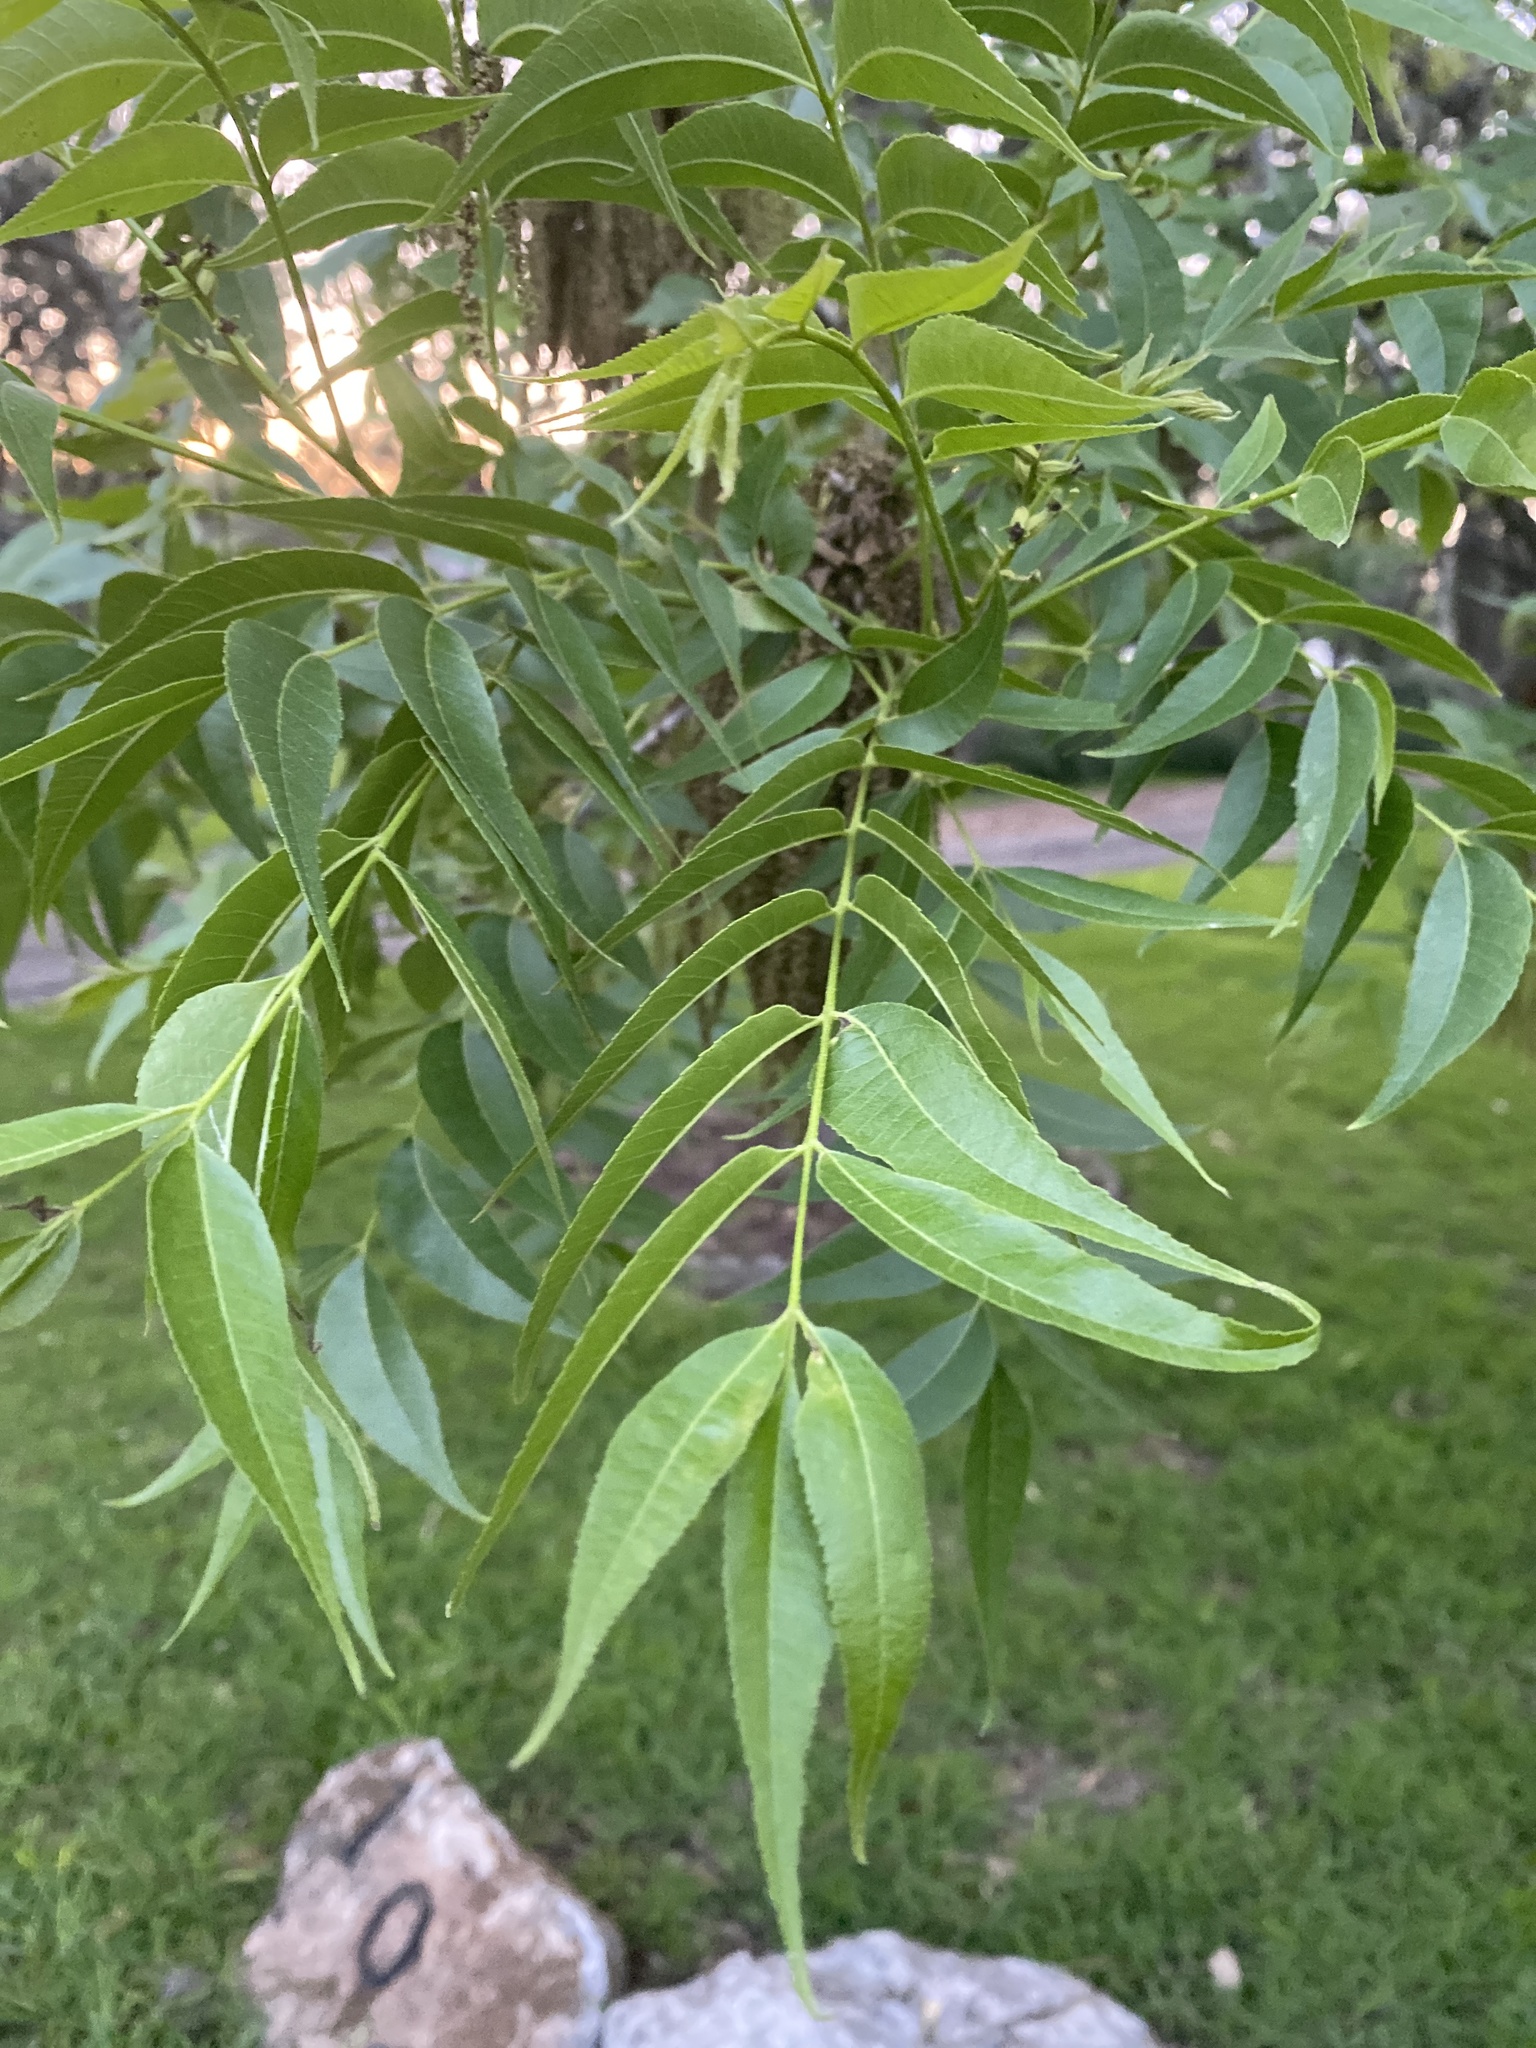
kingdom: Plantae
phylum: Tracheophyta
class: Magnoliopsida
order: Fagales
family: Juglandaceae
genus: Carya
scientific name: Carya illinoinensis
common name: Pecan
